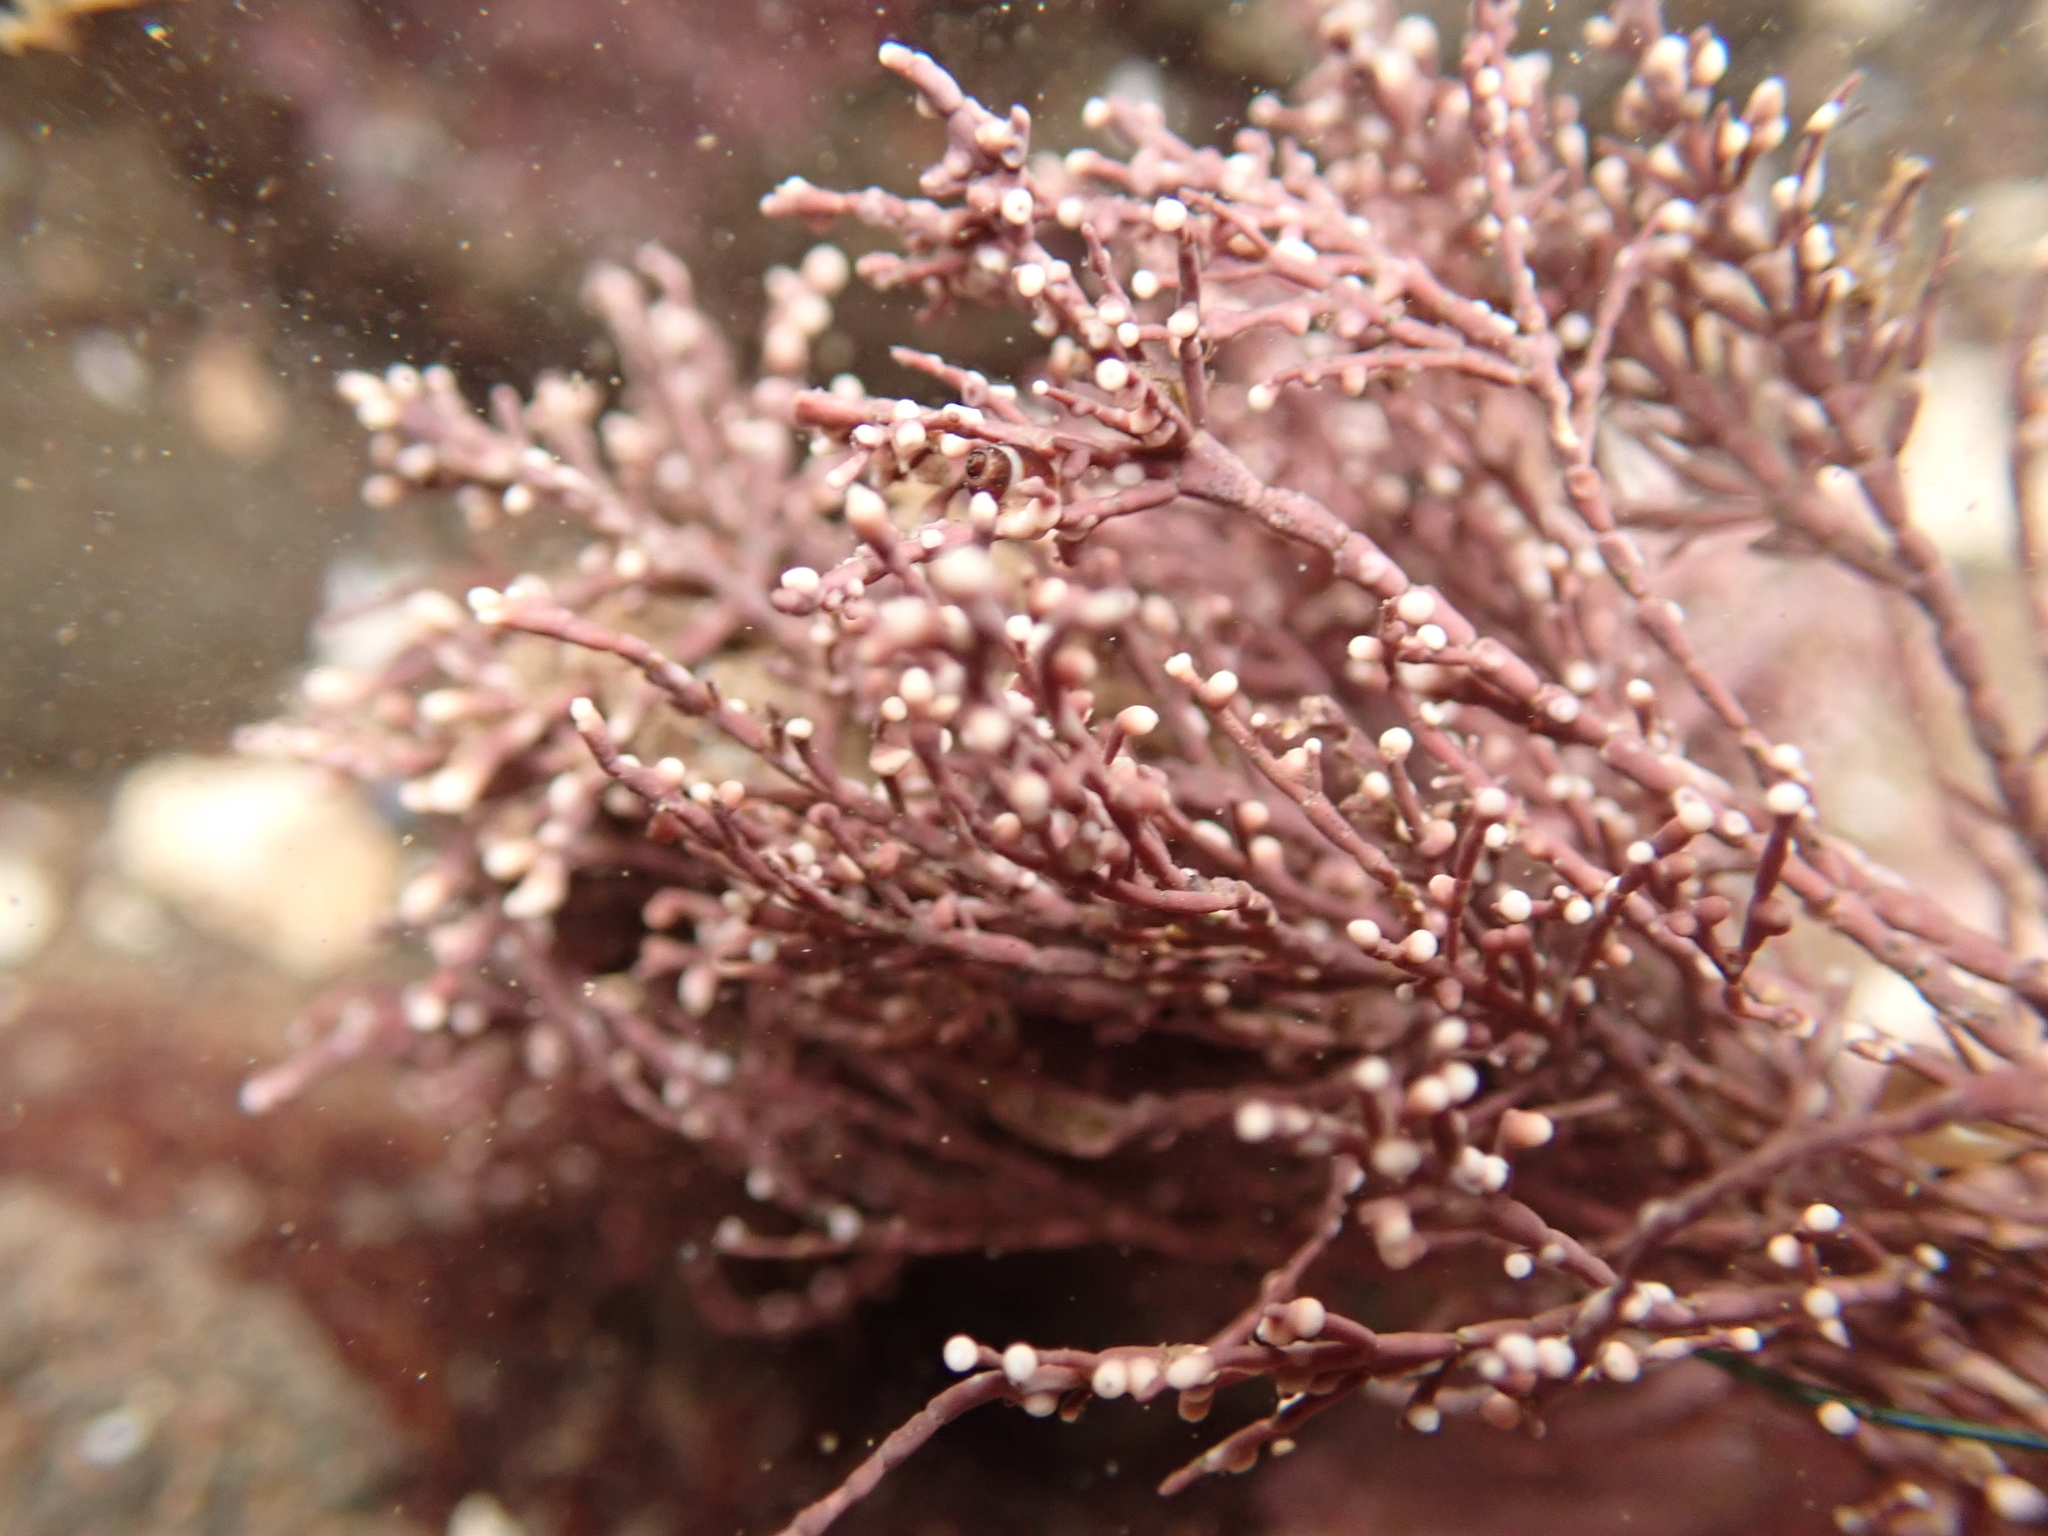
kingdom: Plantae
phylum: Rhodophyta
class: Florideophyceae
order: Corallinales
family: Corallinaceae
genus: Corallina
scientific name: Corallina officinalis
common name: Coral weed
